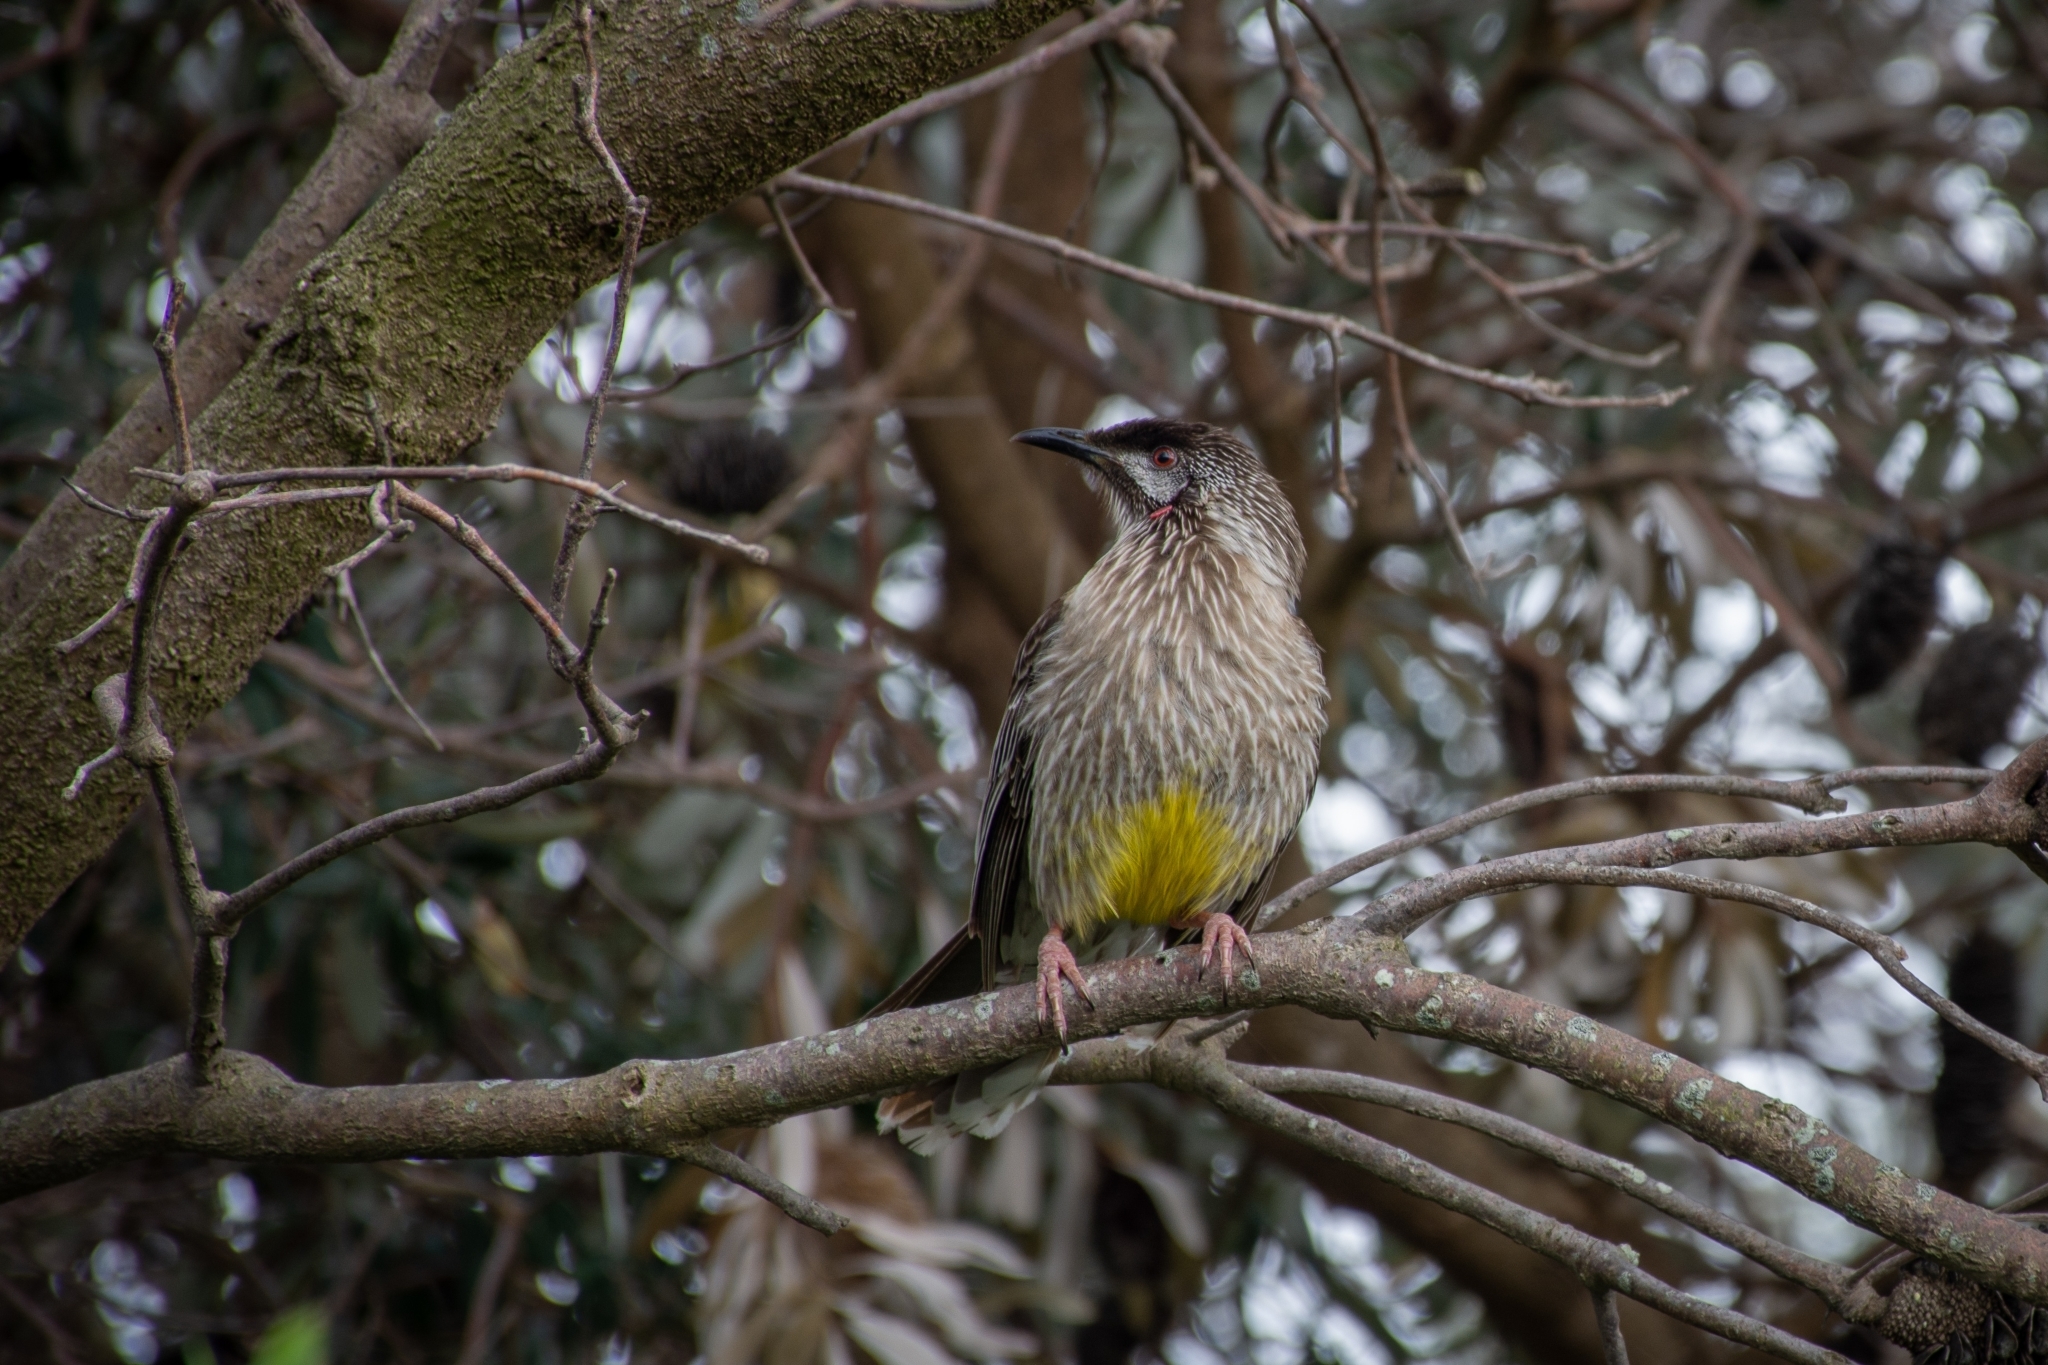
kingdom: Animalia
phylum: Chordata
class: Aves
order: Passeriformes
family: Meliphagidae
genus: Anthochaera
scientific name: Anthochaera carunculata
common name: Red wattlebird
